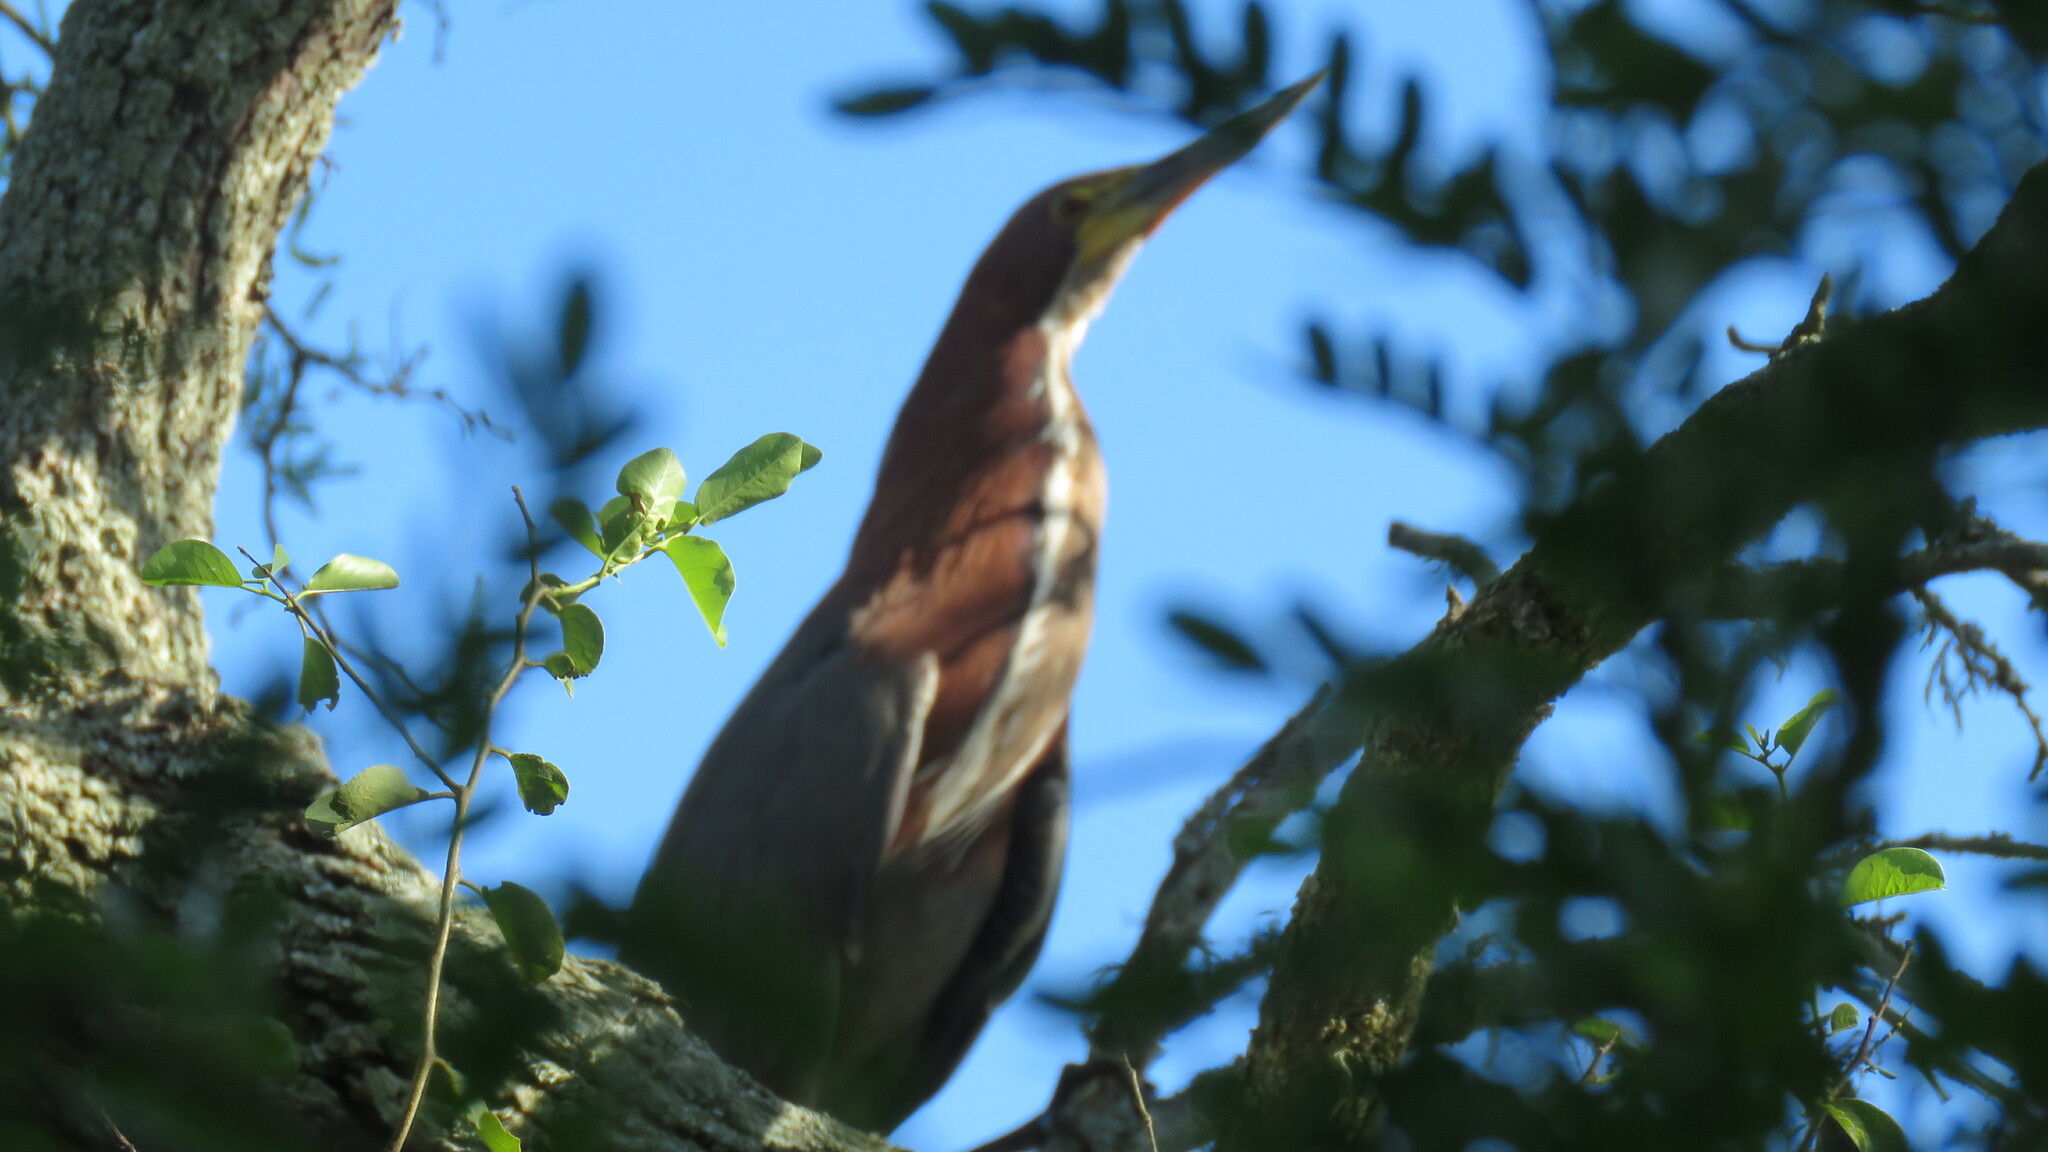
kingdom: Animalia
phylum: Chordata
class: Aves
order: Pelecaniformes
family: Ardeidae
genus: Tigrisoma
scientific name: Tigrisoma lineatum
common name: Rufescent tiger-heron
